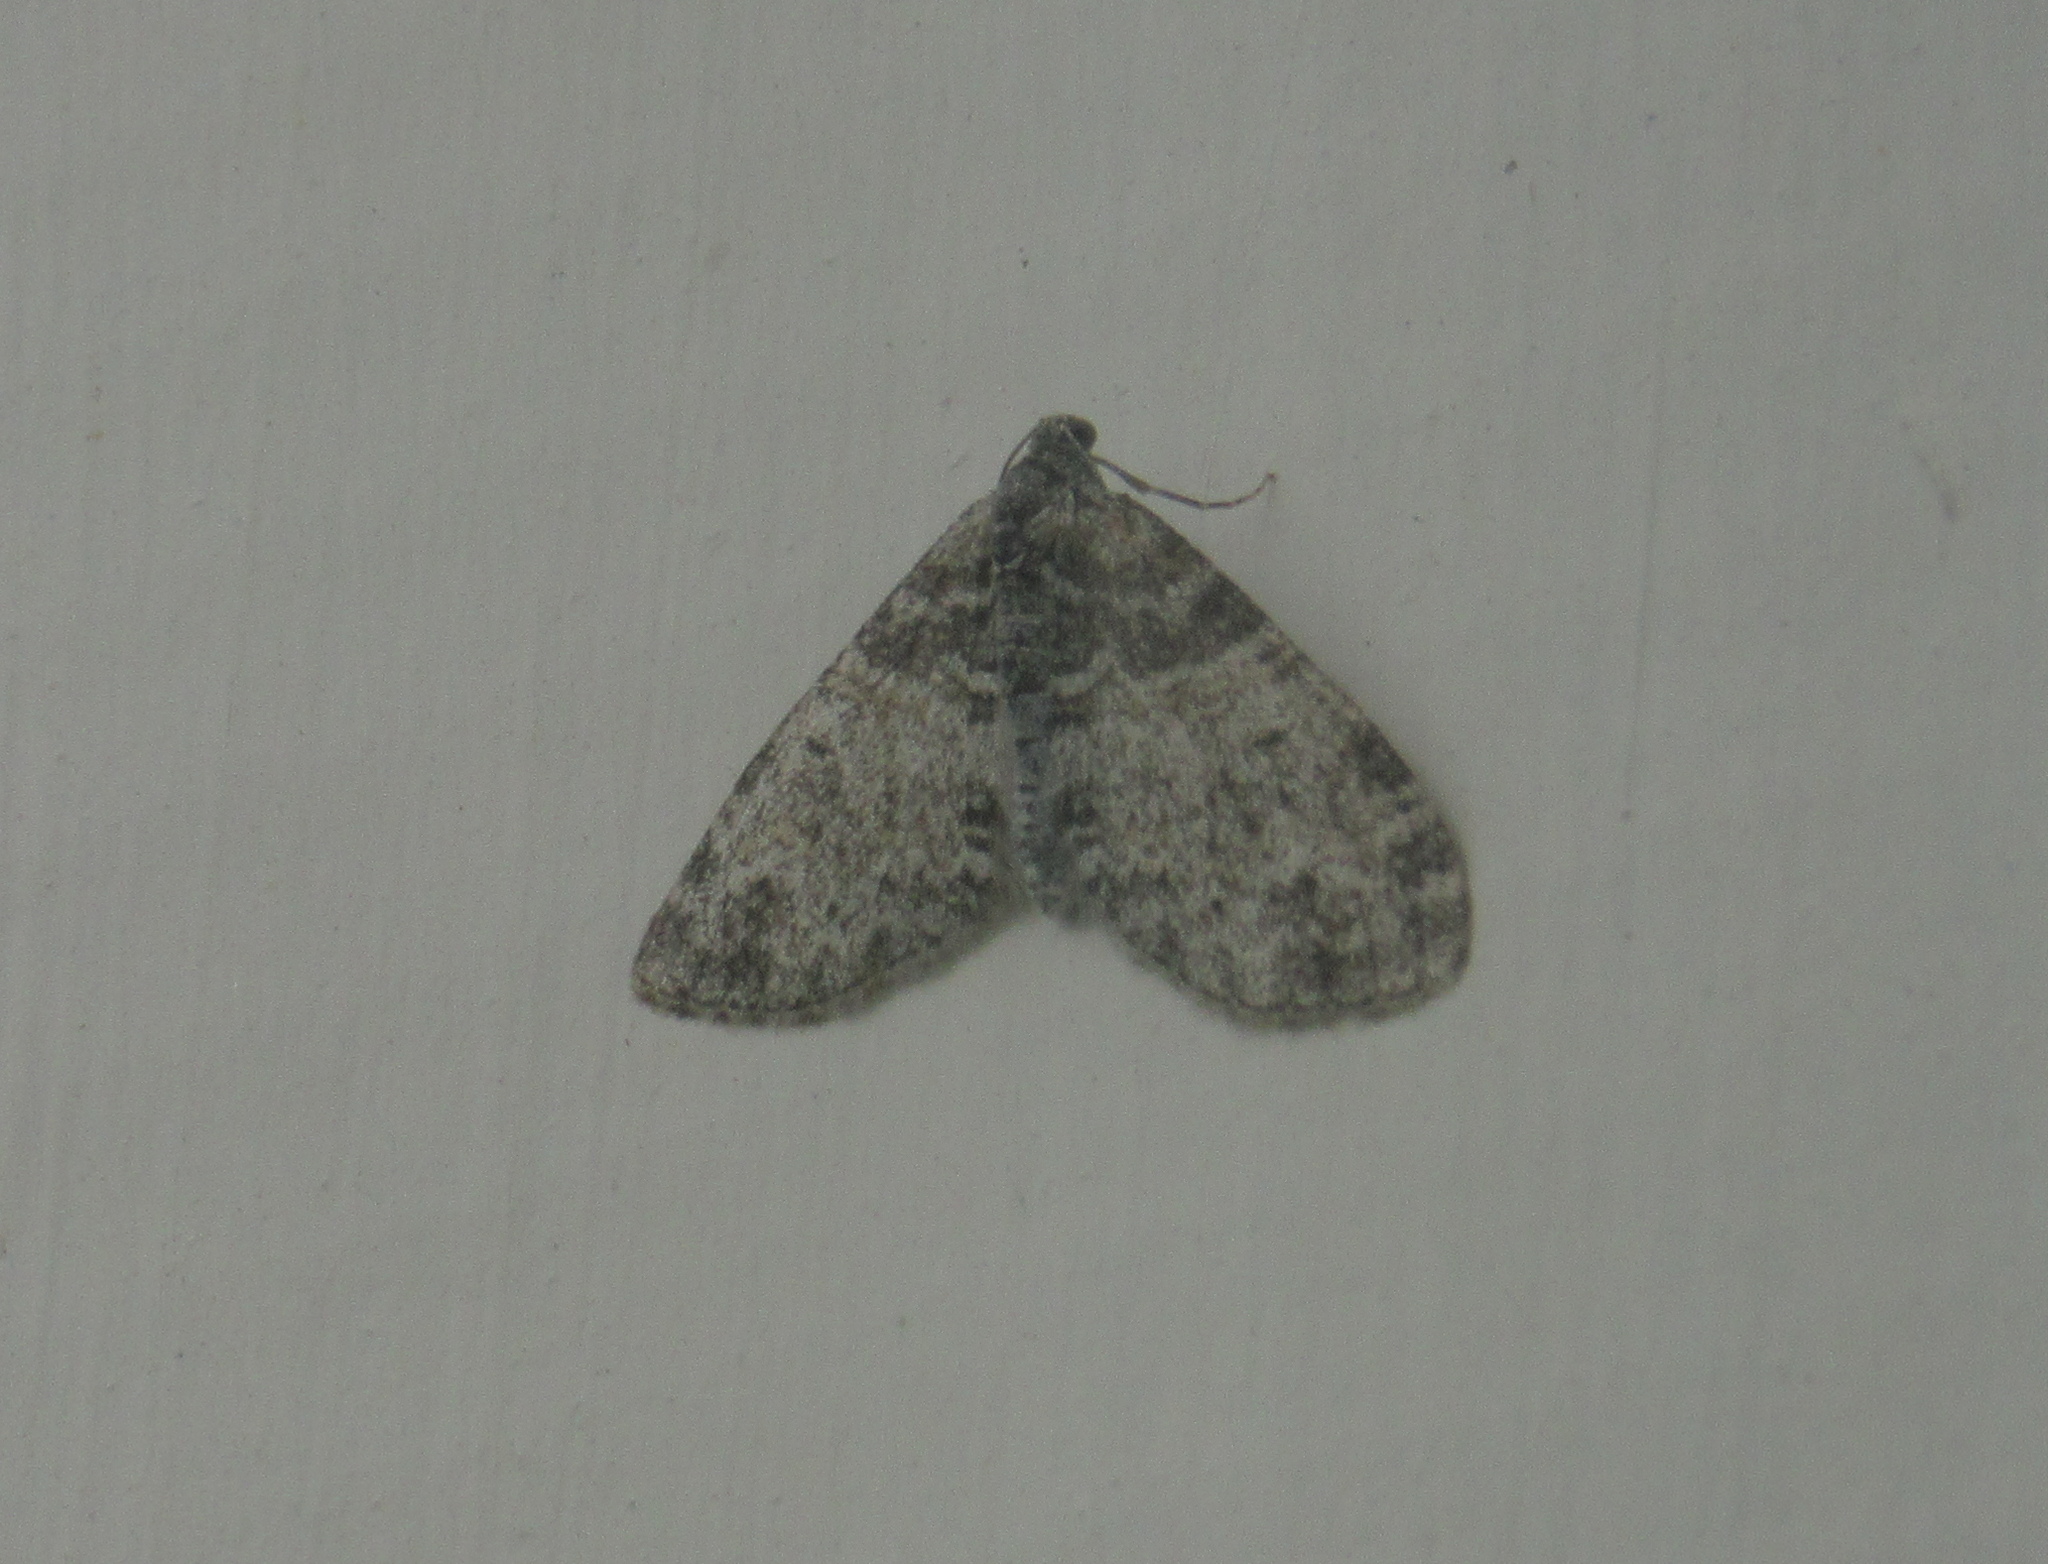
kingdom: Animalia
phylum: Arthropoda
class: Insecta
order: Lepidoptera
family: Geometridae
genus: Lobophora
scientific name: Lobophora halterata
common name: Seraphim
